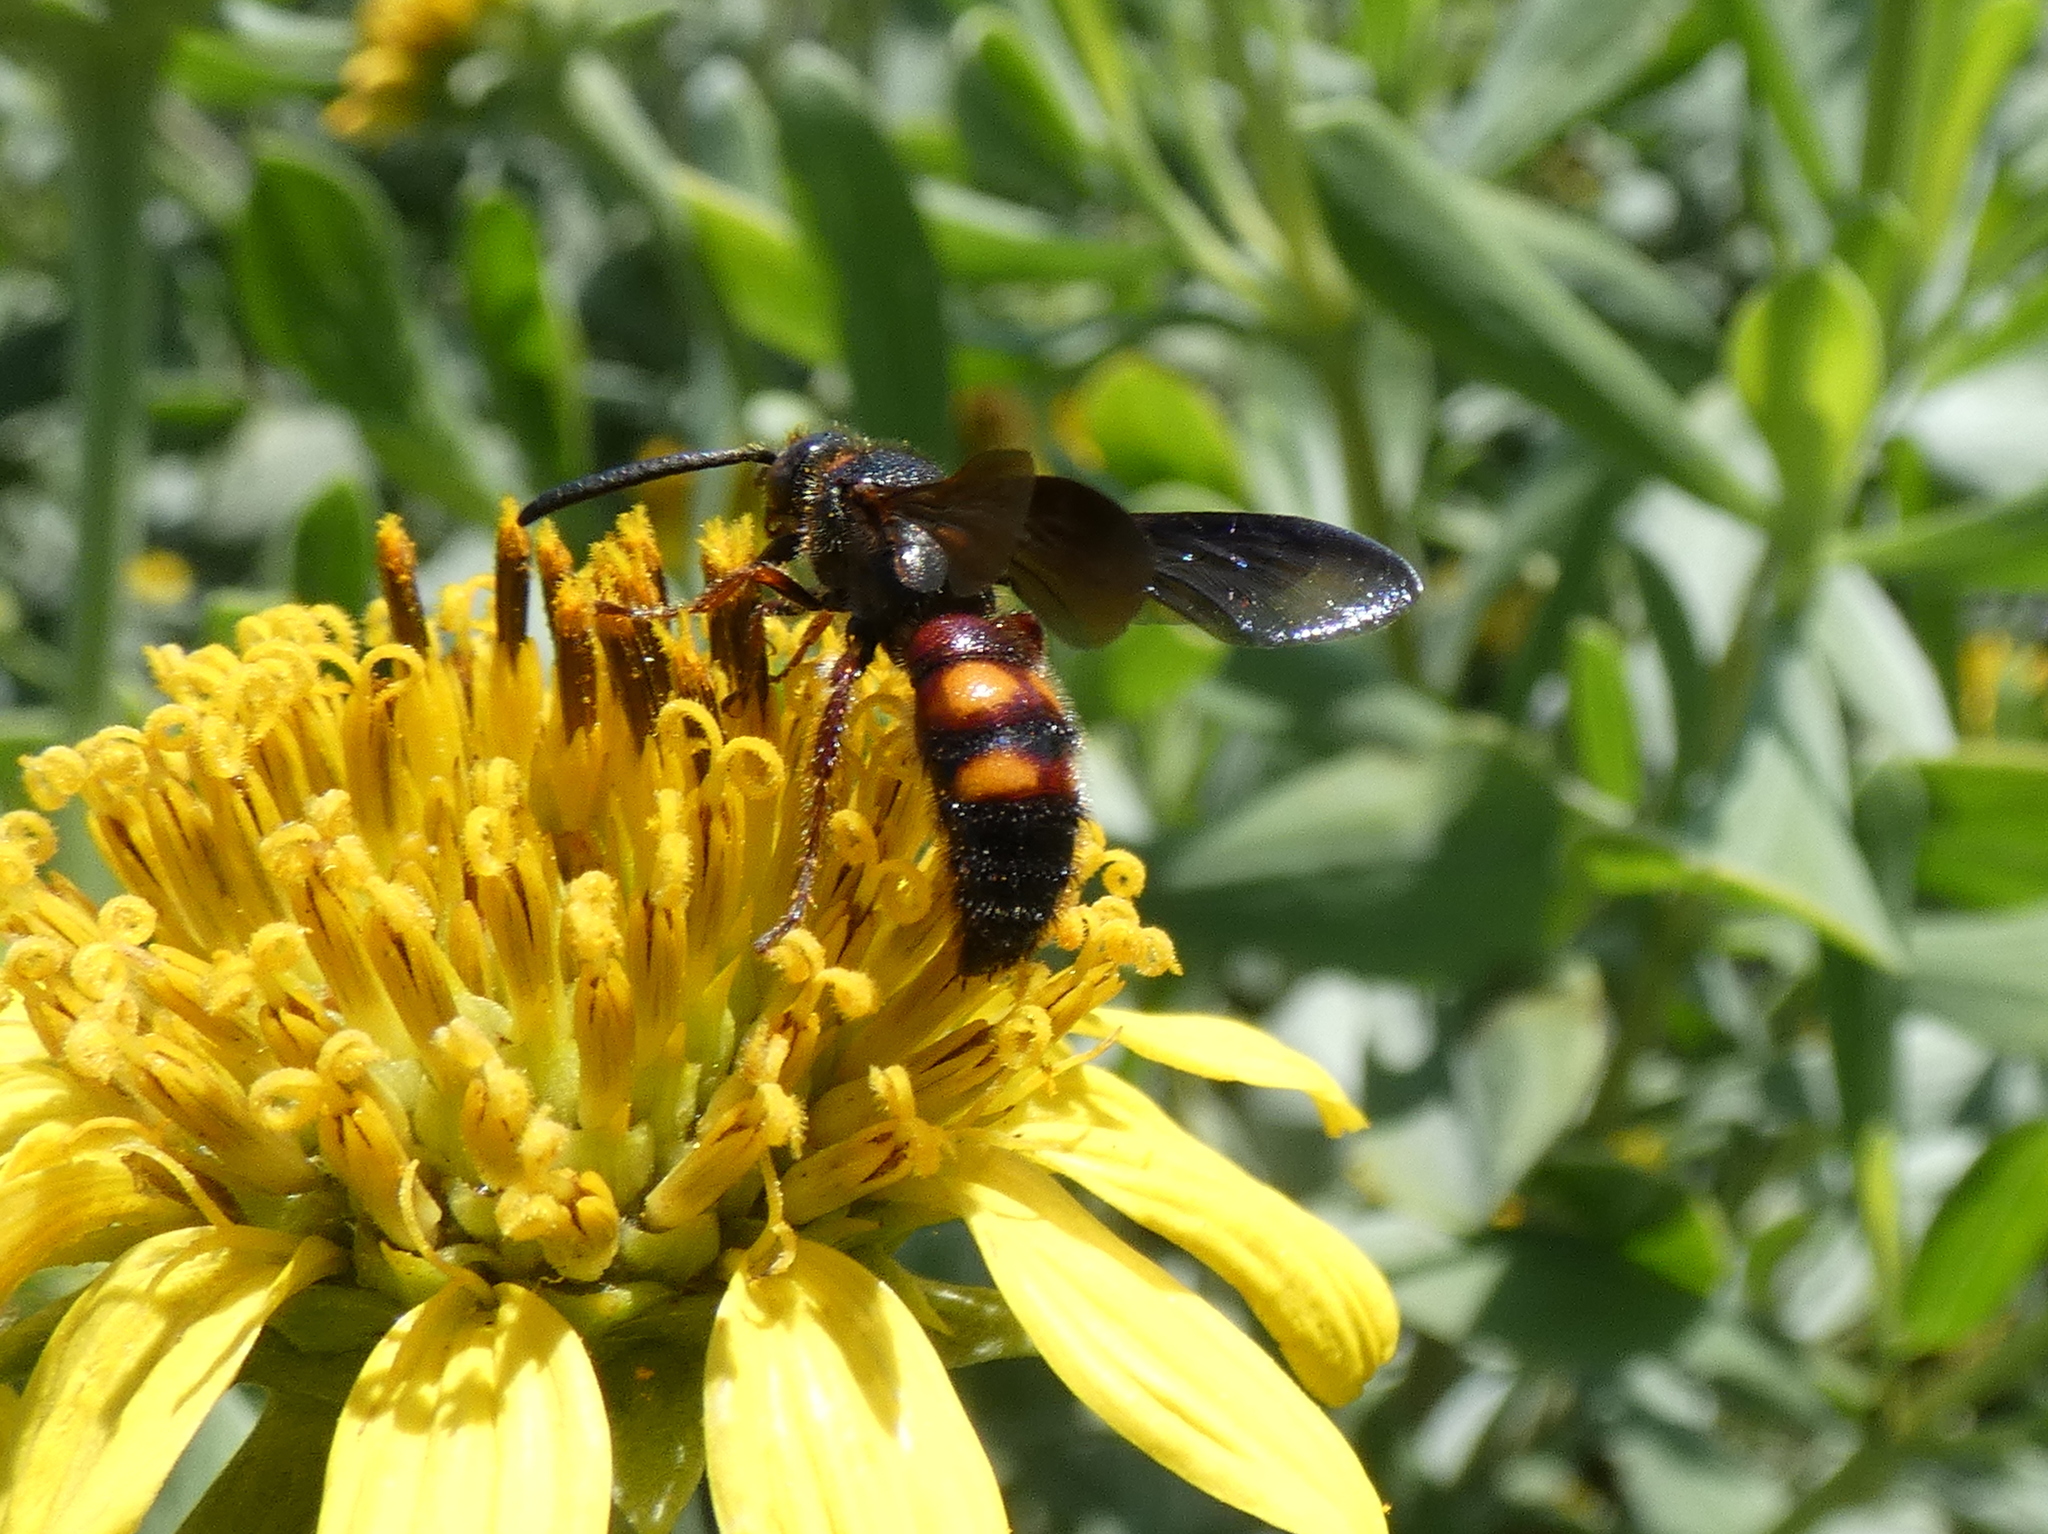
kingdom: Animalia
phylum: Arthropoda
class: Insecta
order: Hymenoptera
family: Scoliidae
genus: Scolia
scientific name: Scolia nobilitata
